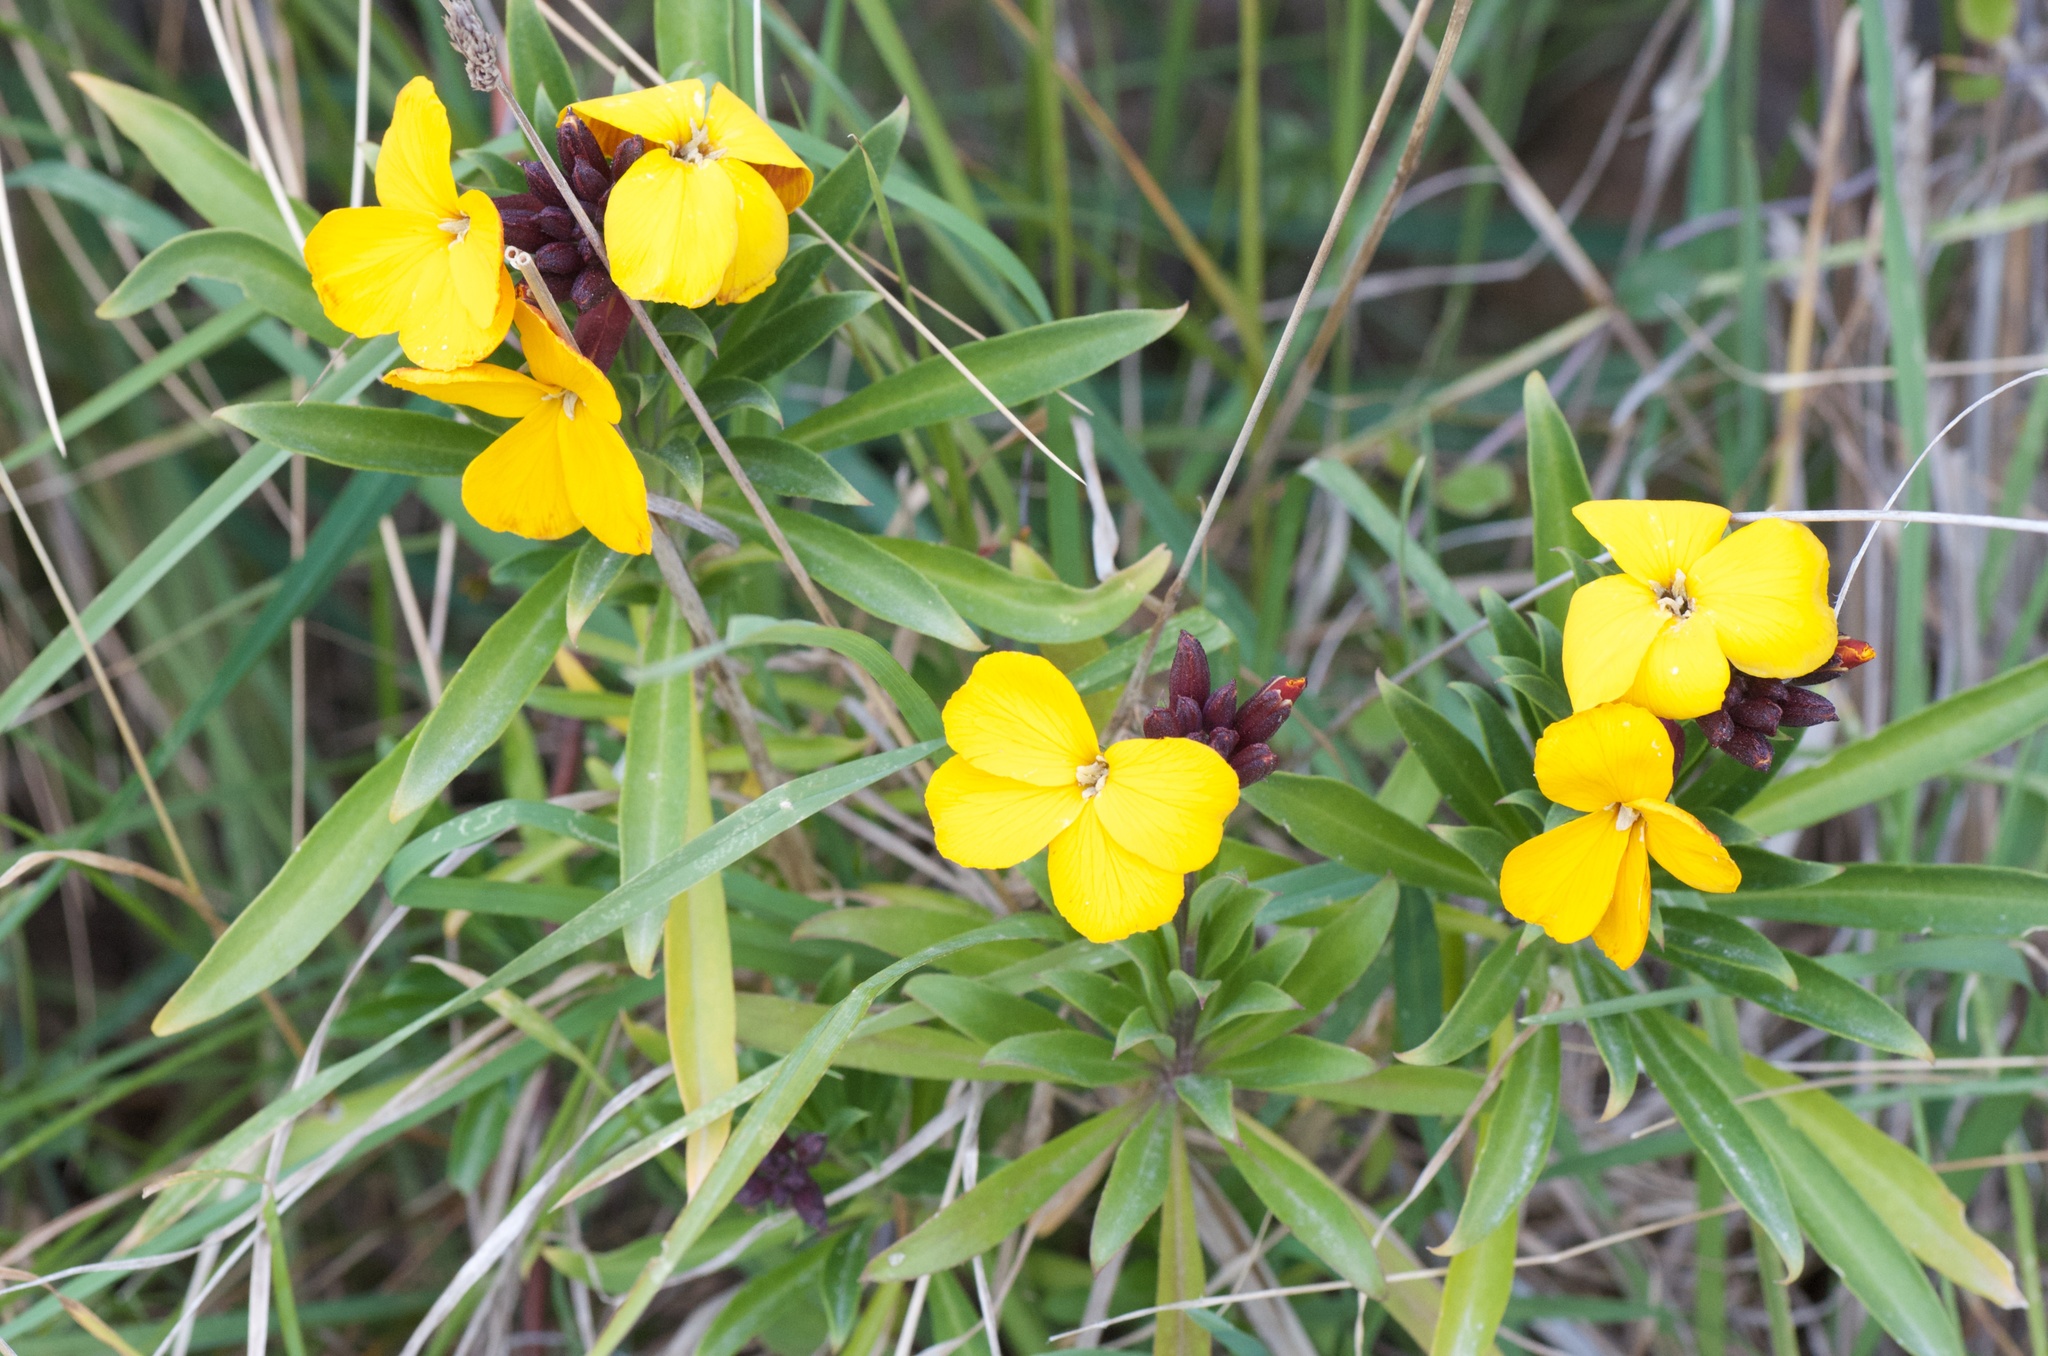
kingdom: Plantae
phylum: Tracheophyta
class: Magnoliopsida
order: Brassicales
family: Brassicaceae
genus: Erysimum
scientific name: Erysimum cheiri
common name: Wallflower
